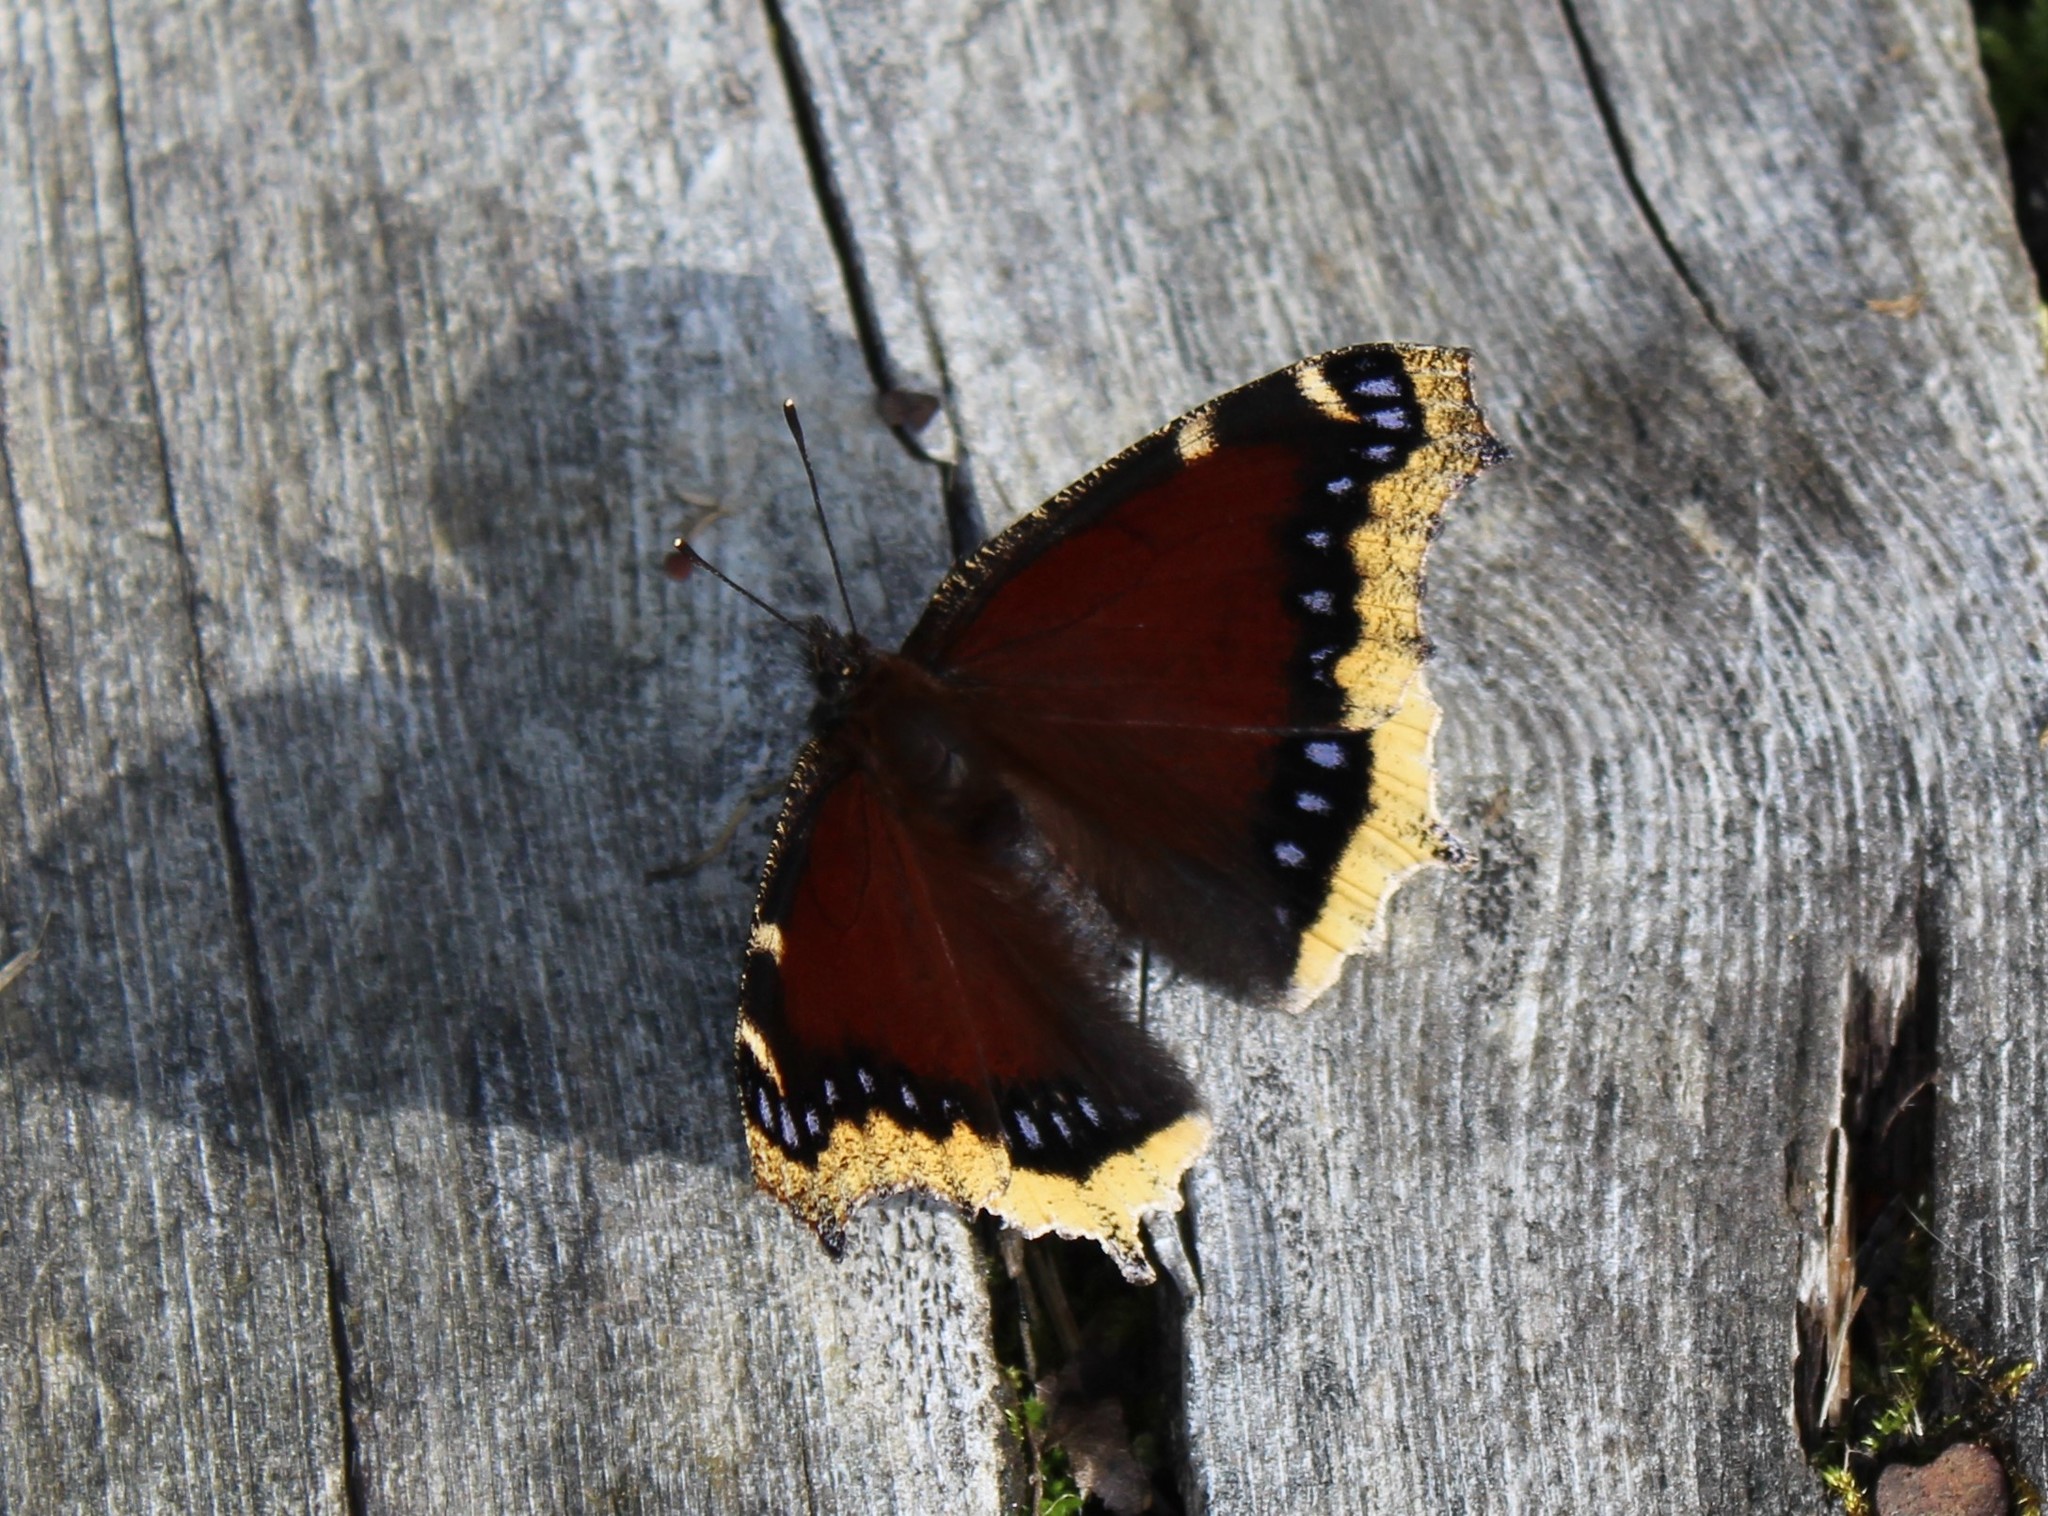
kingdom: Animalia
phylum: Arthropoda
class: Insecta
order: Lepidoptera
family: Nymphalidae
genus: Nymphalis
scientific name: Nymphalis antiopa
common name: Camberwell beauty
